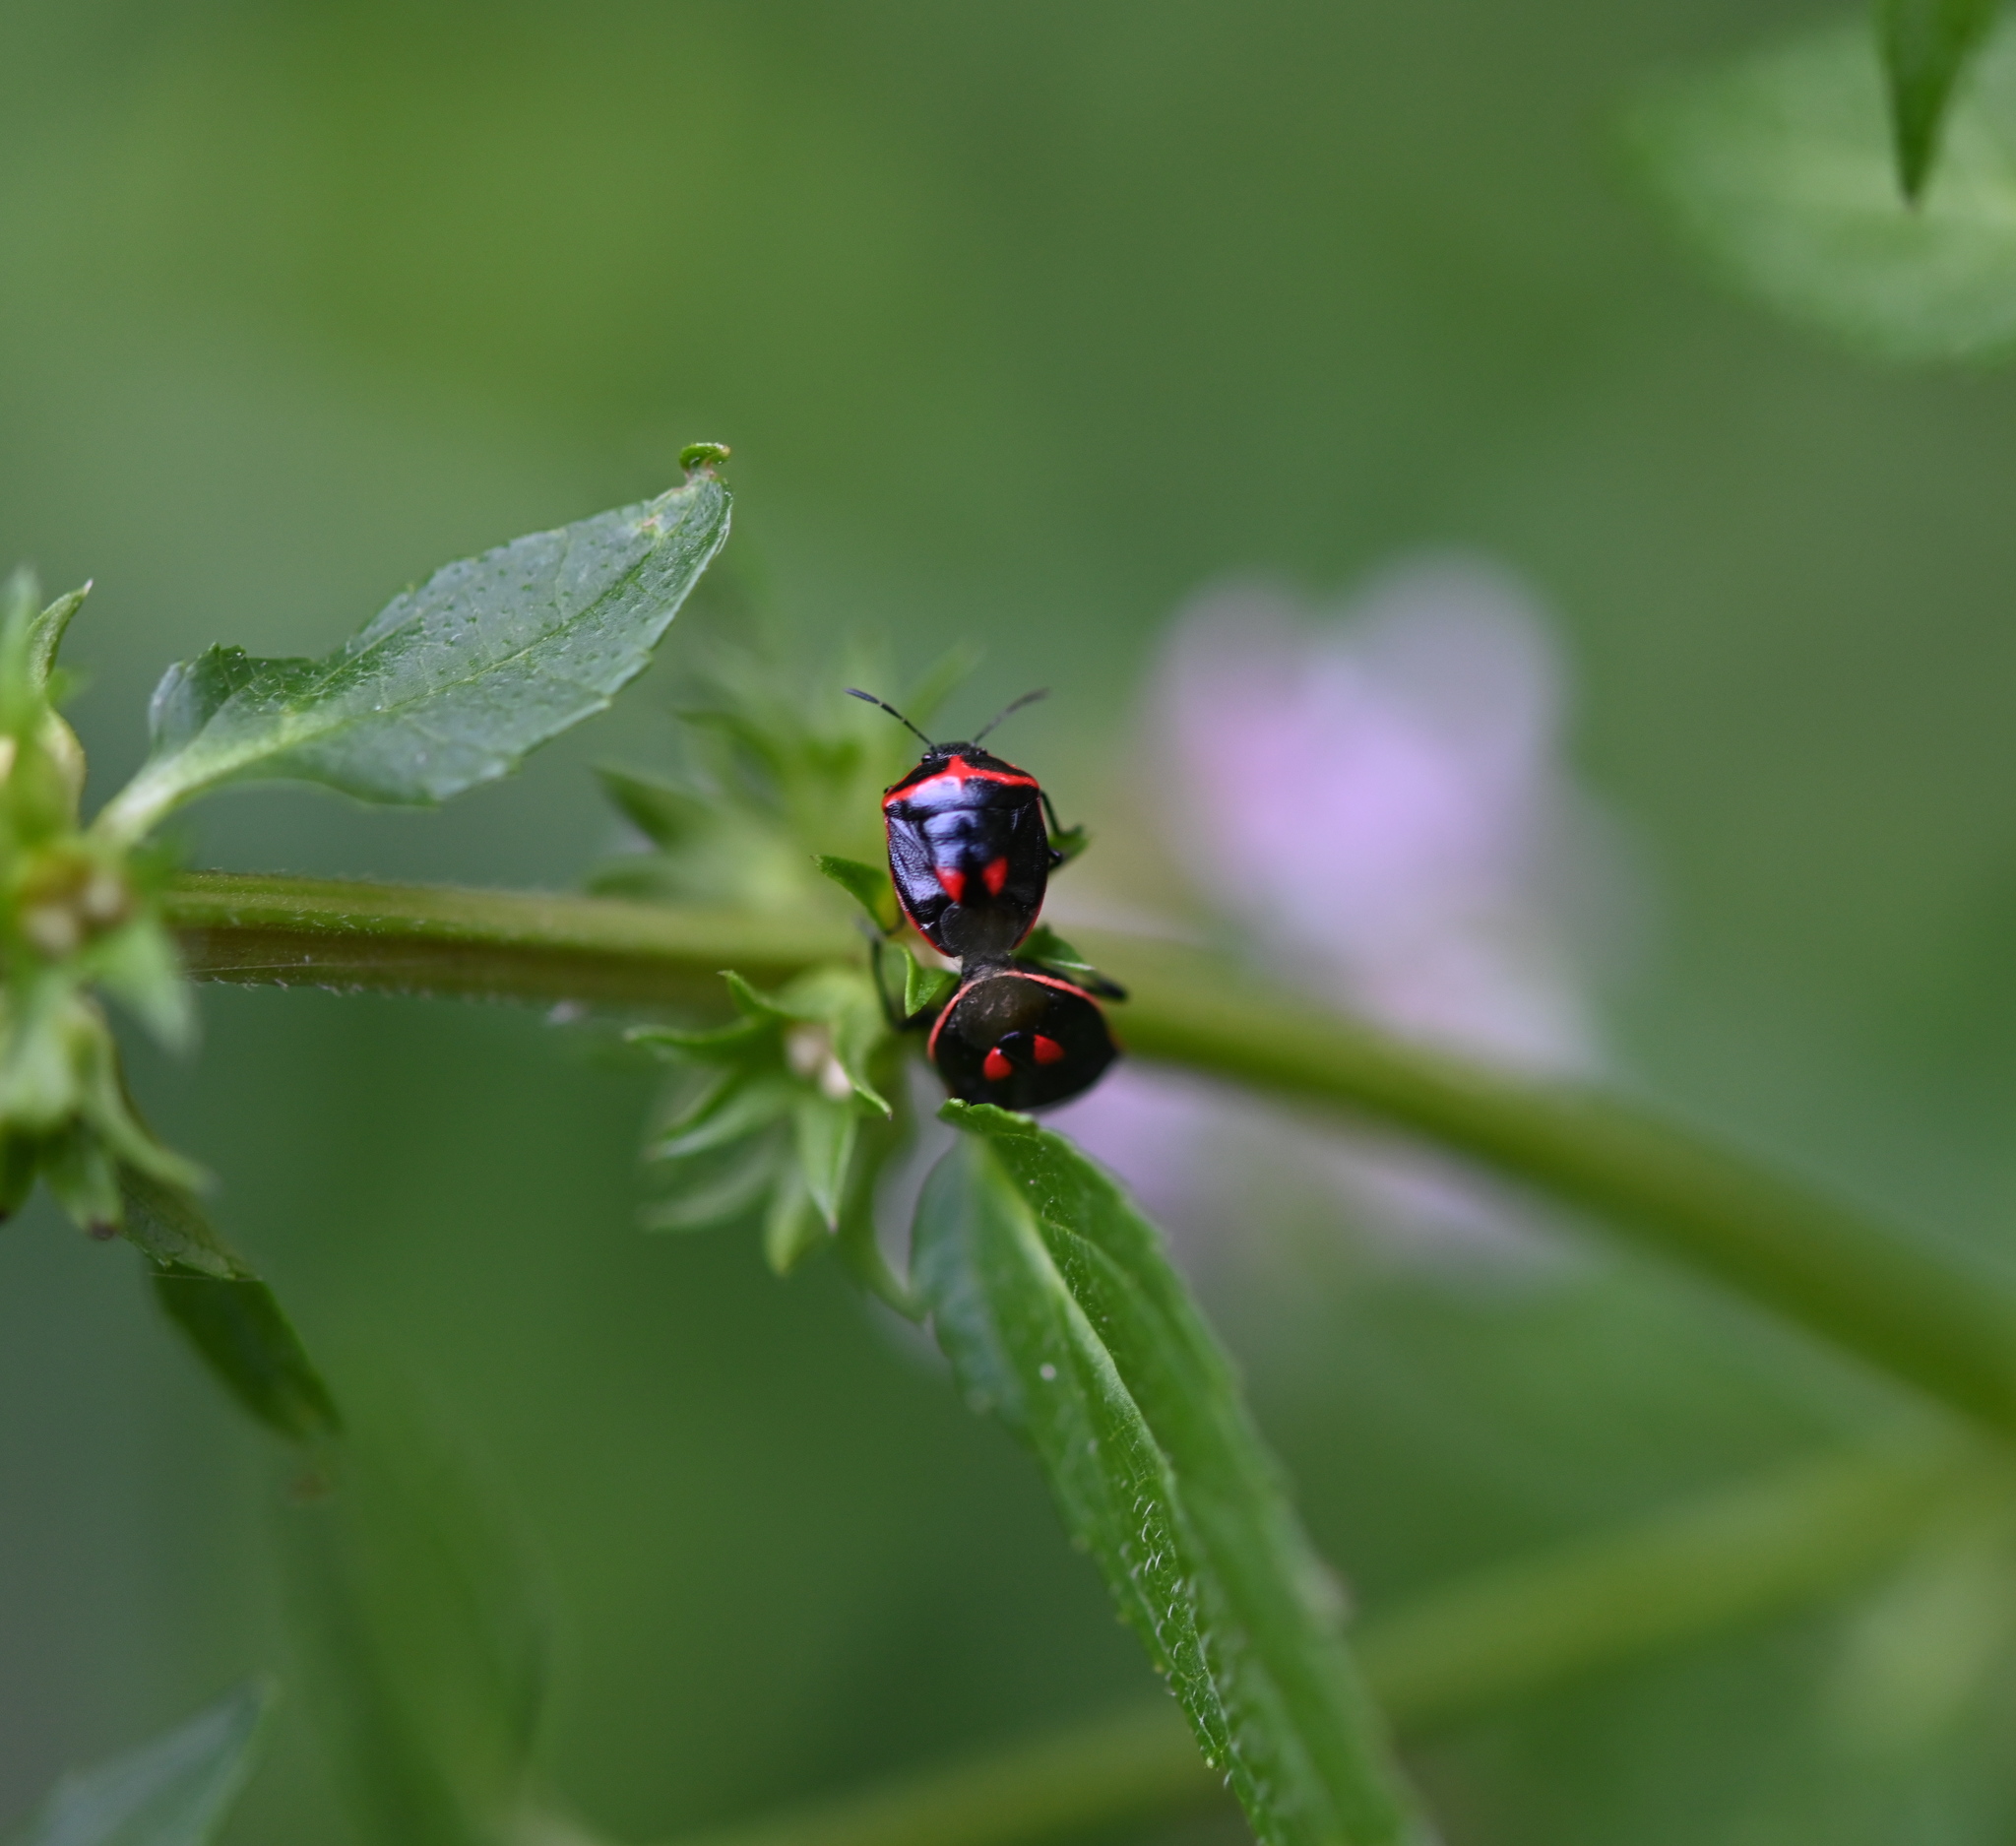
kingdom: Animalia
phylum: Arthropoda
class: Insecta
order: Hemiptera
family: Pentatomidae
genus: Cosmopepla
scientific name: Cosmopepla lintneriana
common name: Twice-stabbed stink bug
